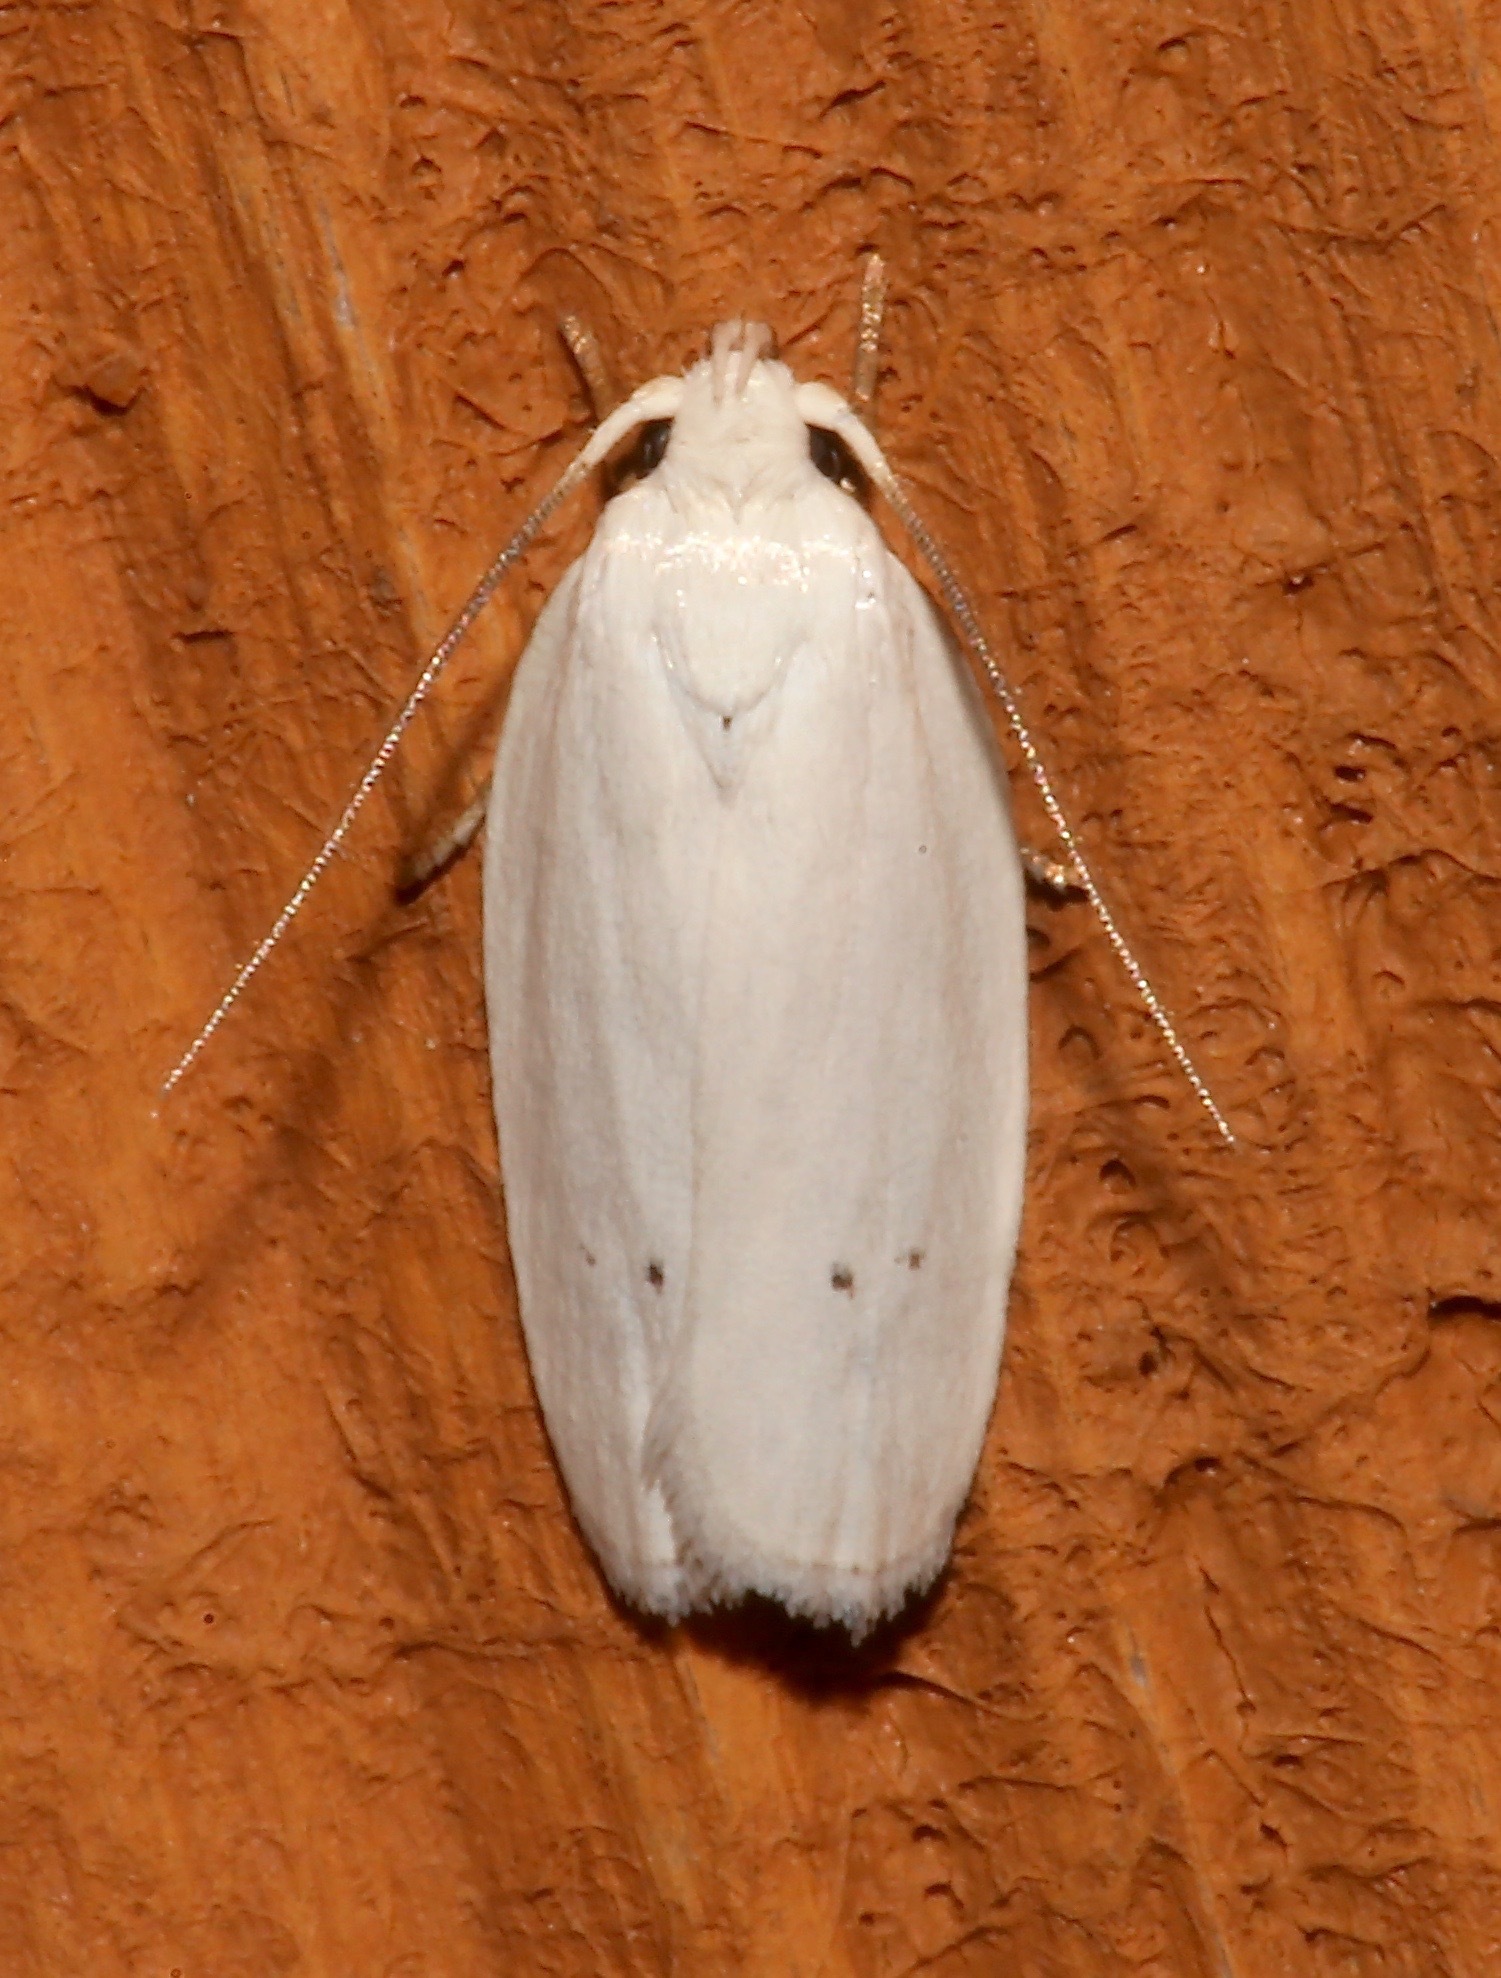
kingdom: Animalia
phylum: Arthropoda
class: Insecta
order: Lepidoptera
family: Depressariidae
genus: Antaeotricha
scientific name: Antaeotricha albulella
